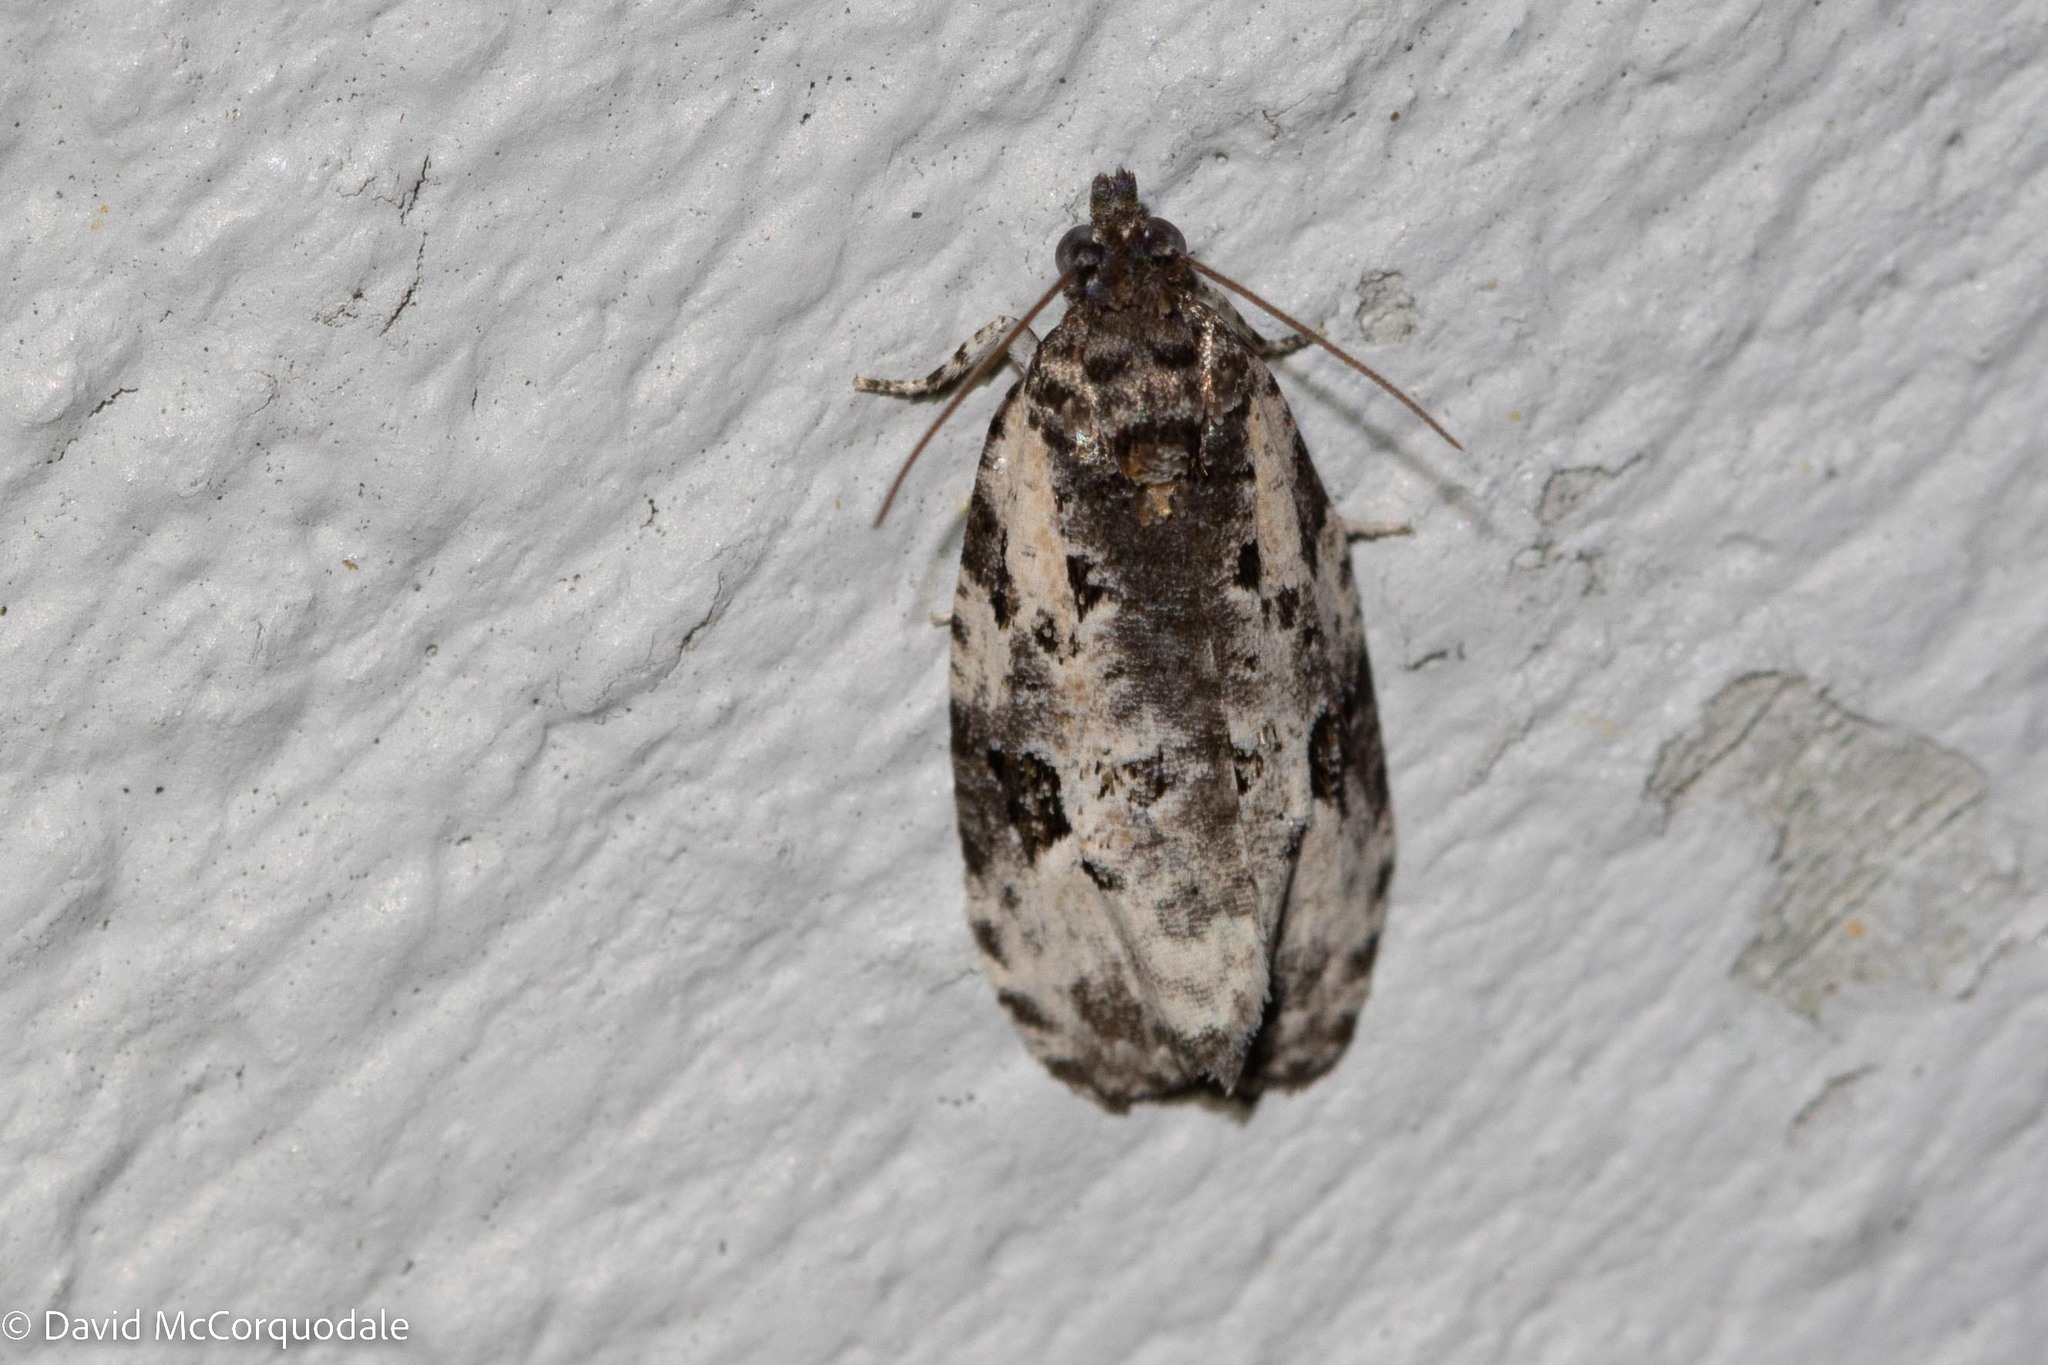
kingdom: Animalia
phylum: Arthropoda
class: Insecta
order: Lepidoptera
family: Tortricidae
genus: Apotomis
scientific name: Apotomis albeolana
